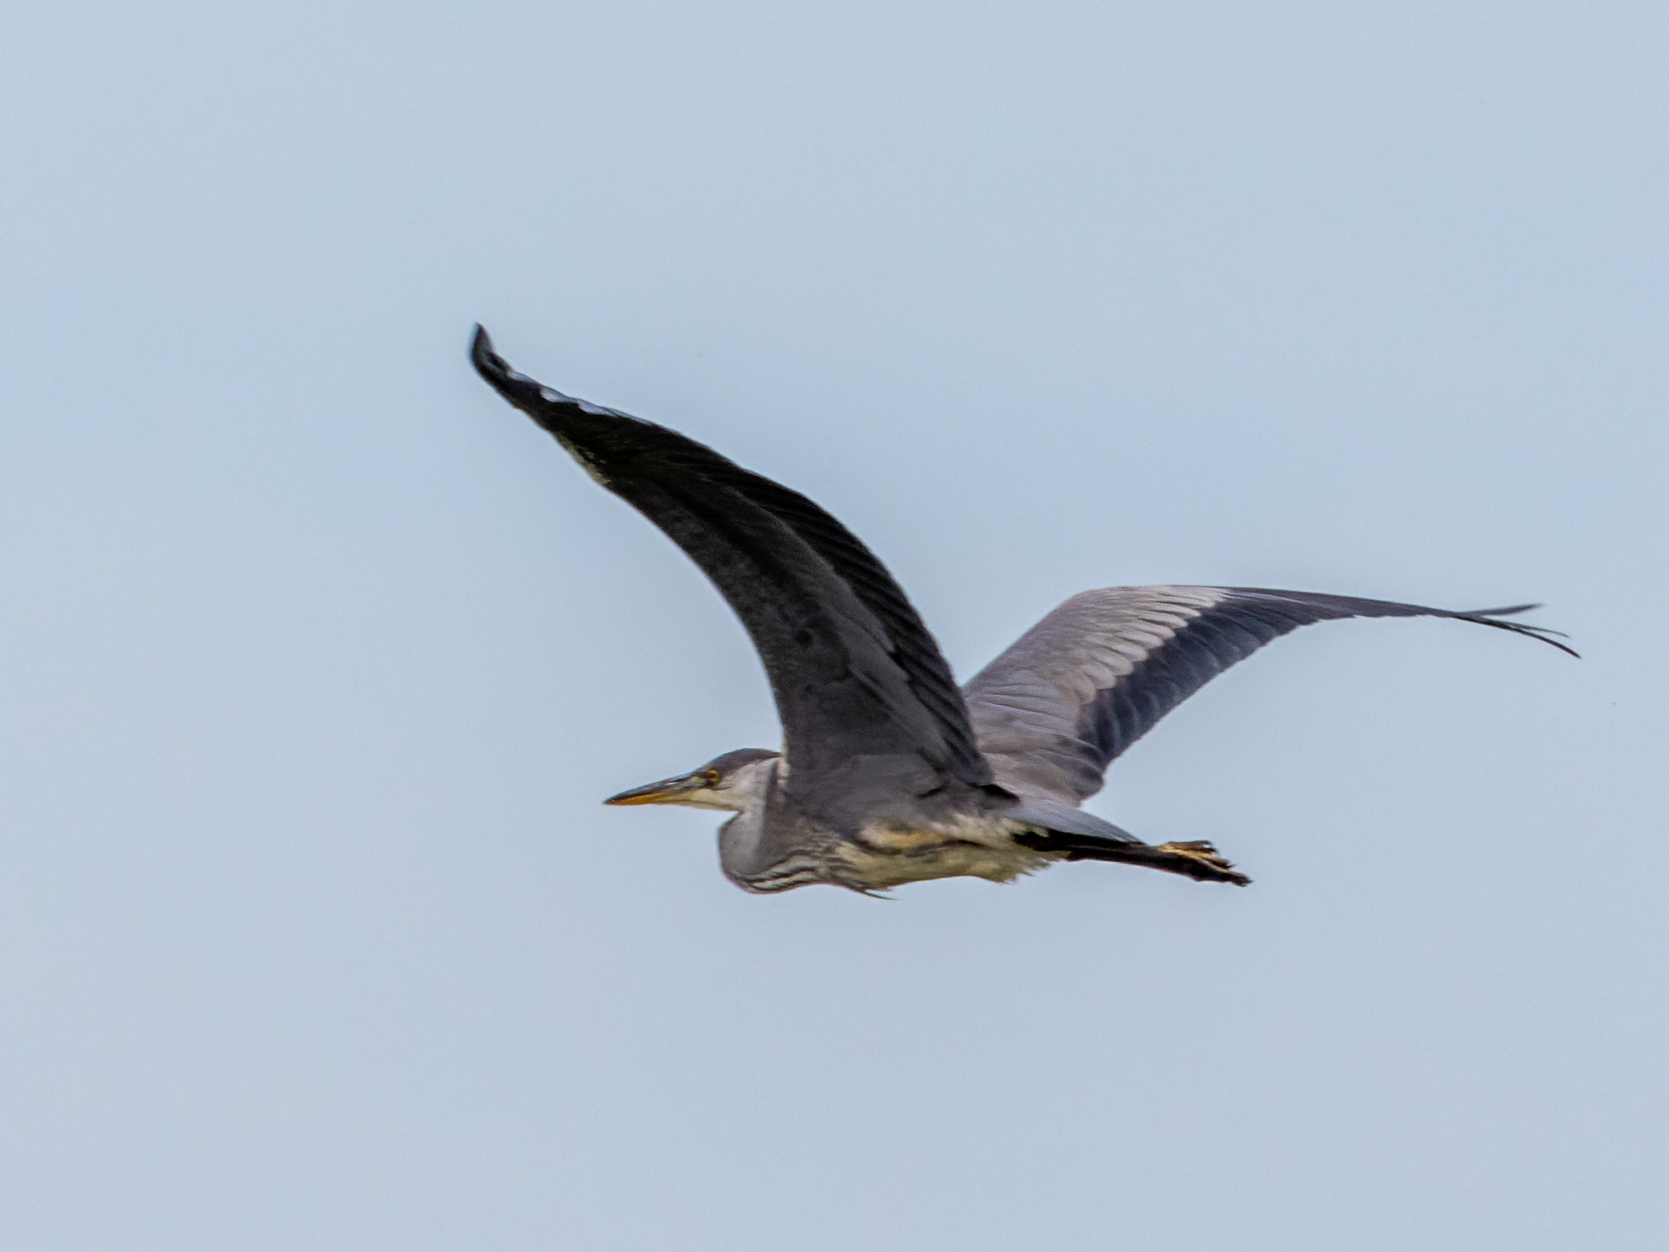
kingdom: Animalia
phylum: Chordata
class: Aves
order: Pelecaniformes
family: Ardeidae
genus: Ardea
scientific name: Ardea cinerea
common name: Grey heron
